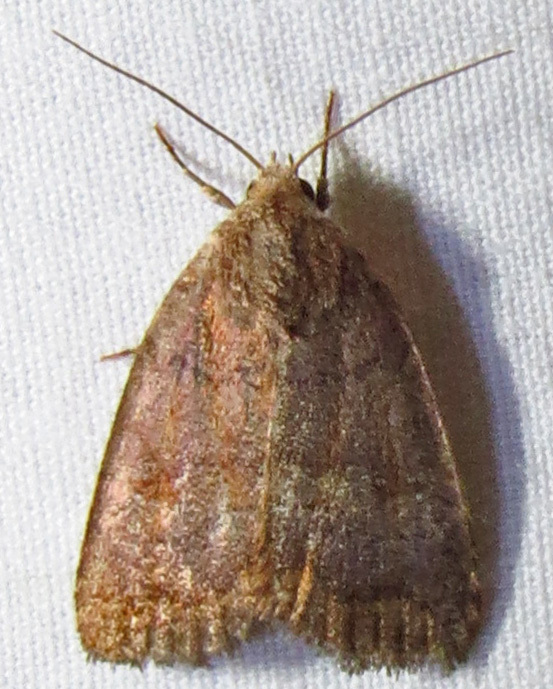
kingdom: Animalia
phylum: Arthropoda
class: Insecta
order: Lepidoptera
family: Noctuidae
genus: Athetis
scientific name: Athetis tarda
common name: Slowpoke moth
